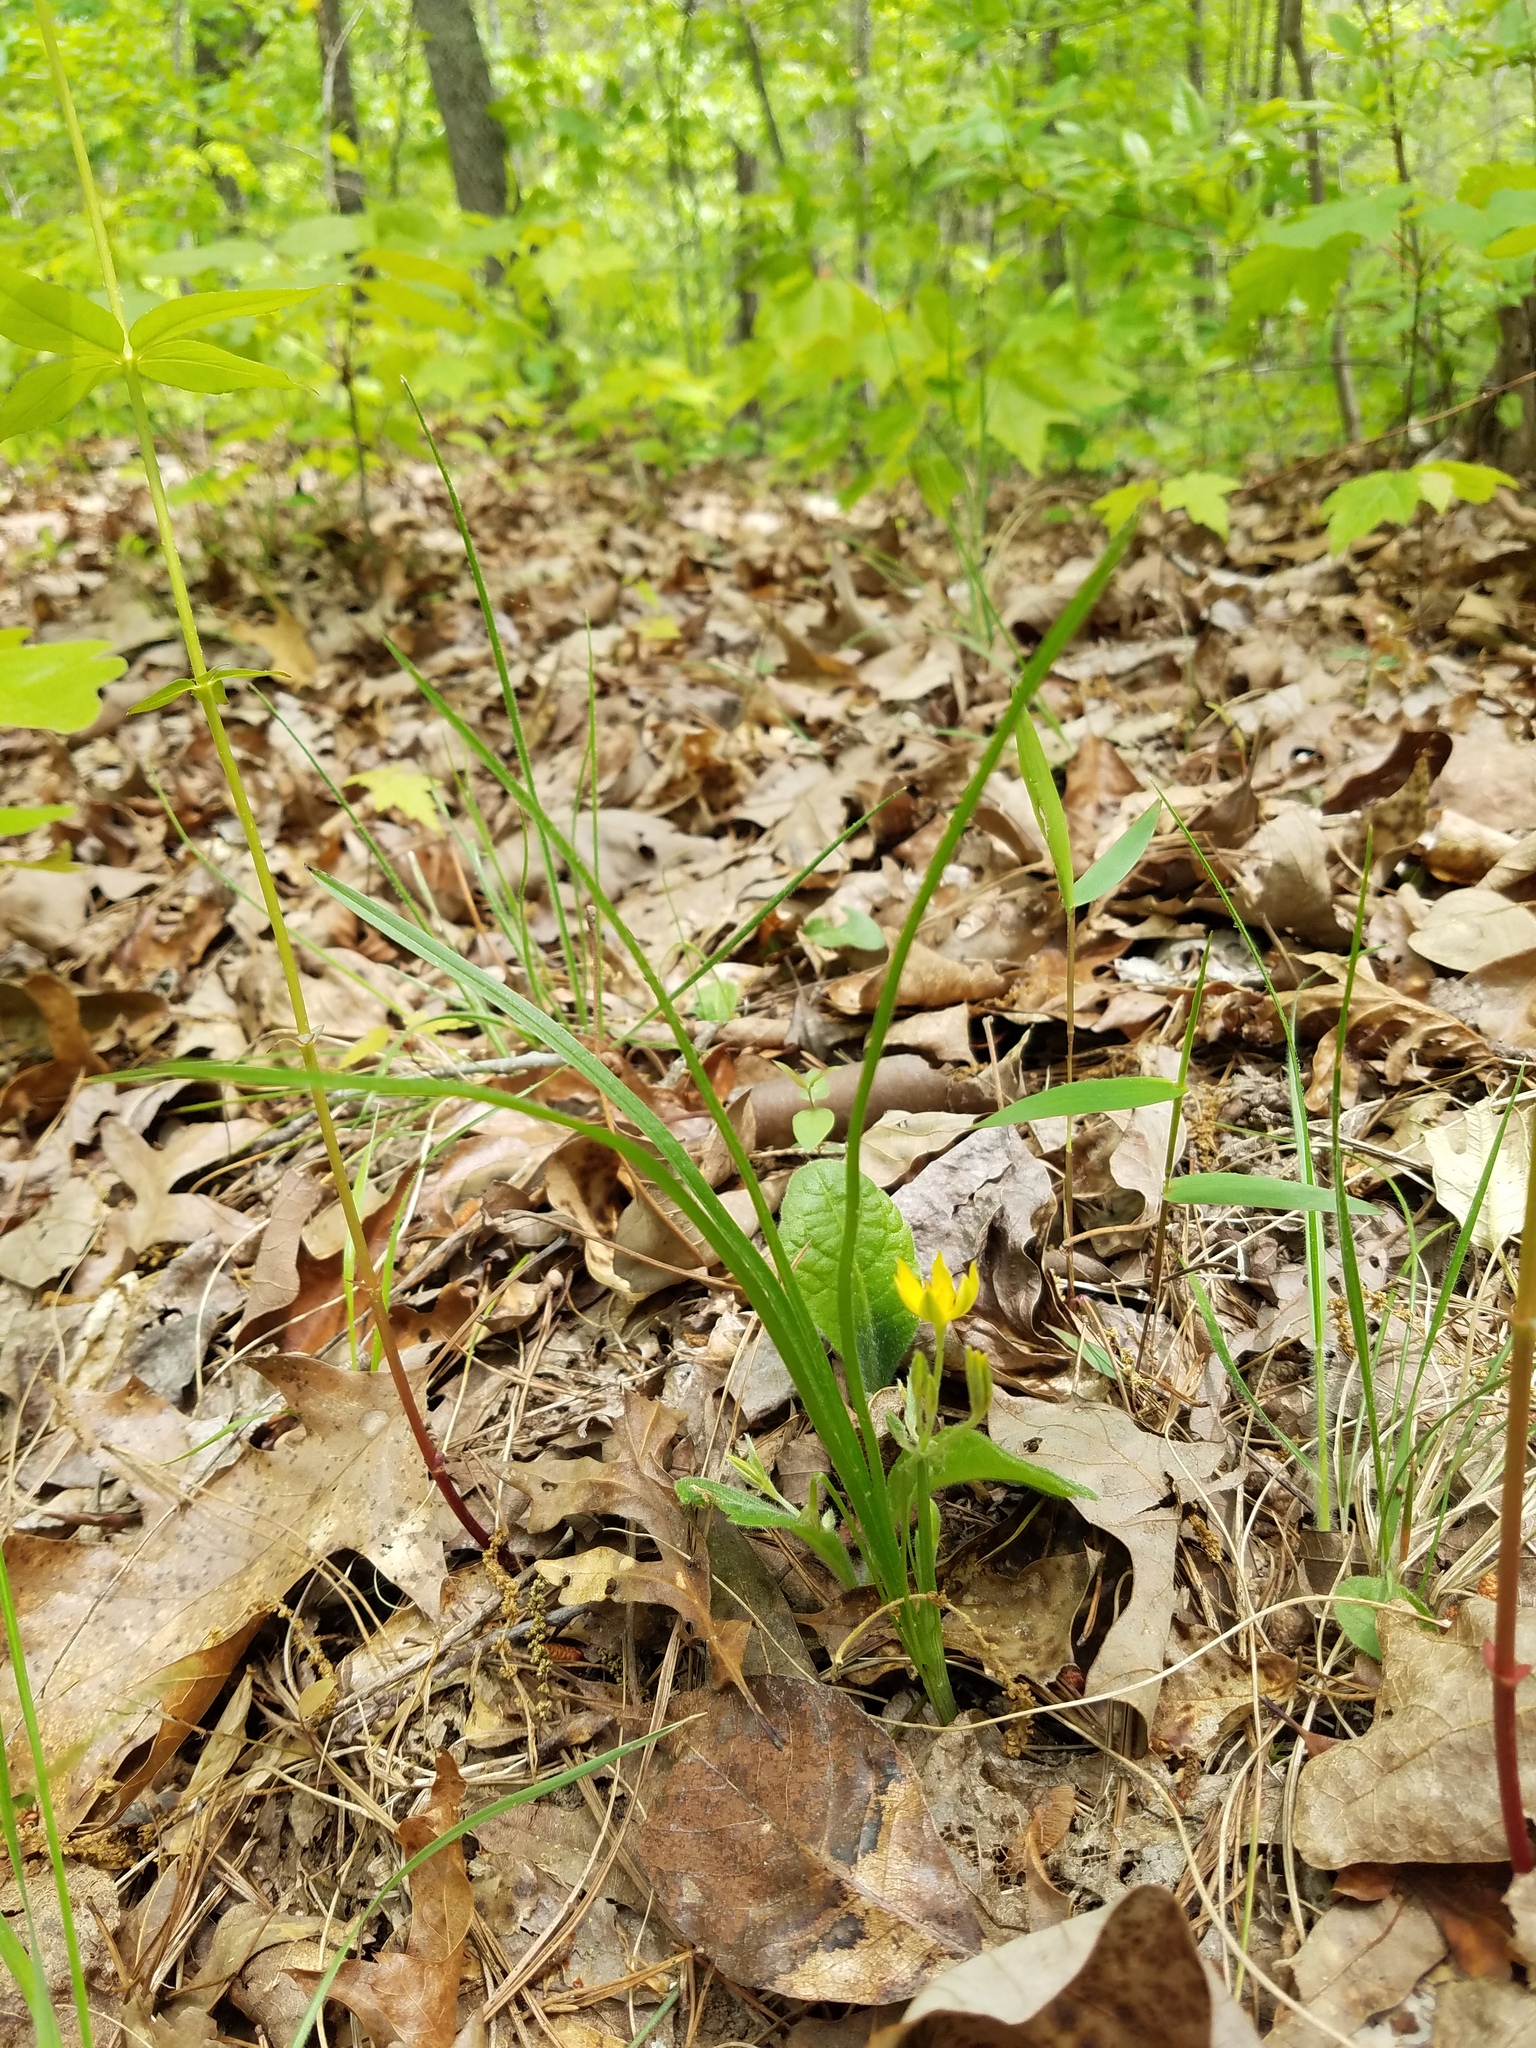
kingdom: Plantae
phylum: Tracheophyta
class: Liliopsida
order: Asparagales
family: Hypoxidaceae
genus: Hypoxis
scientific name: Hypoxis hirsuta
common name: Common goldstar
